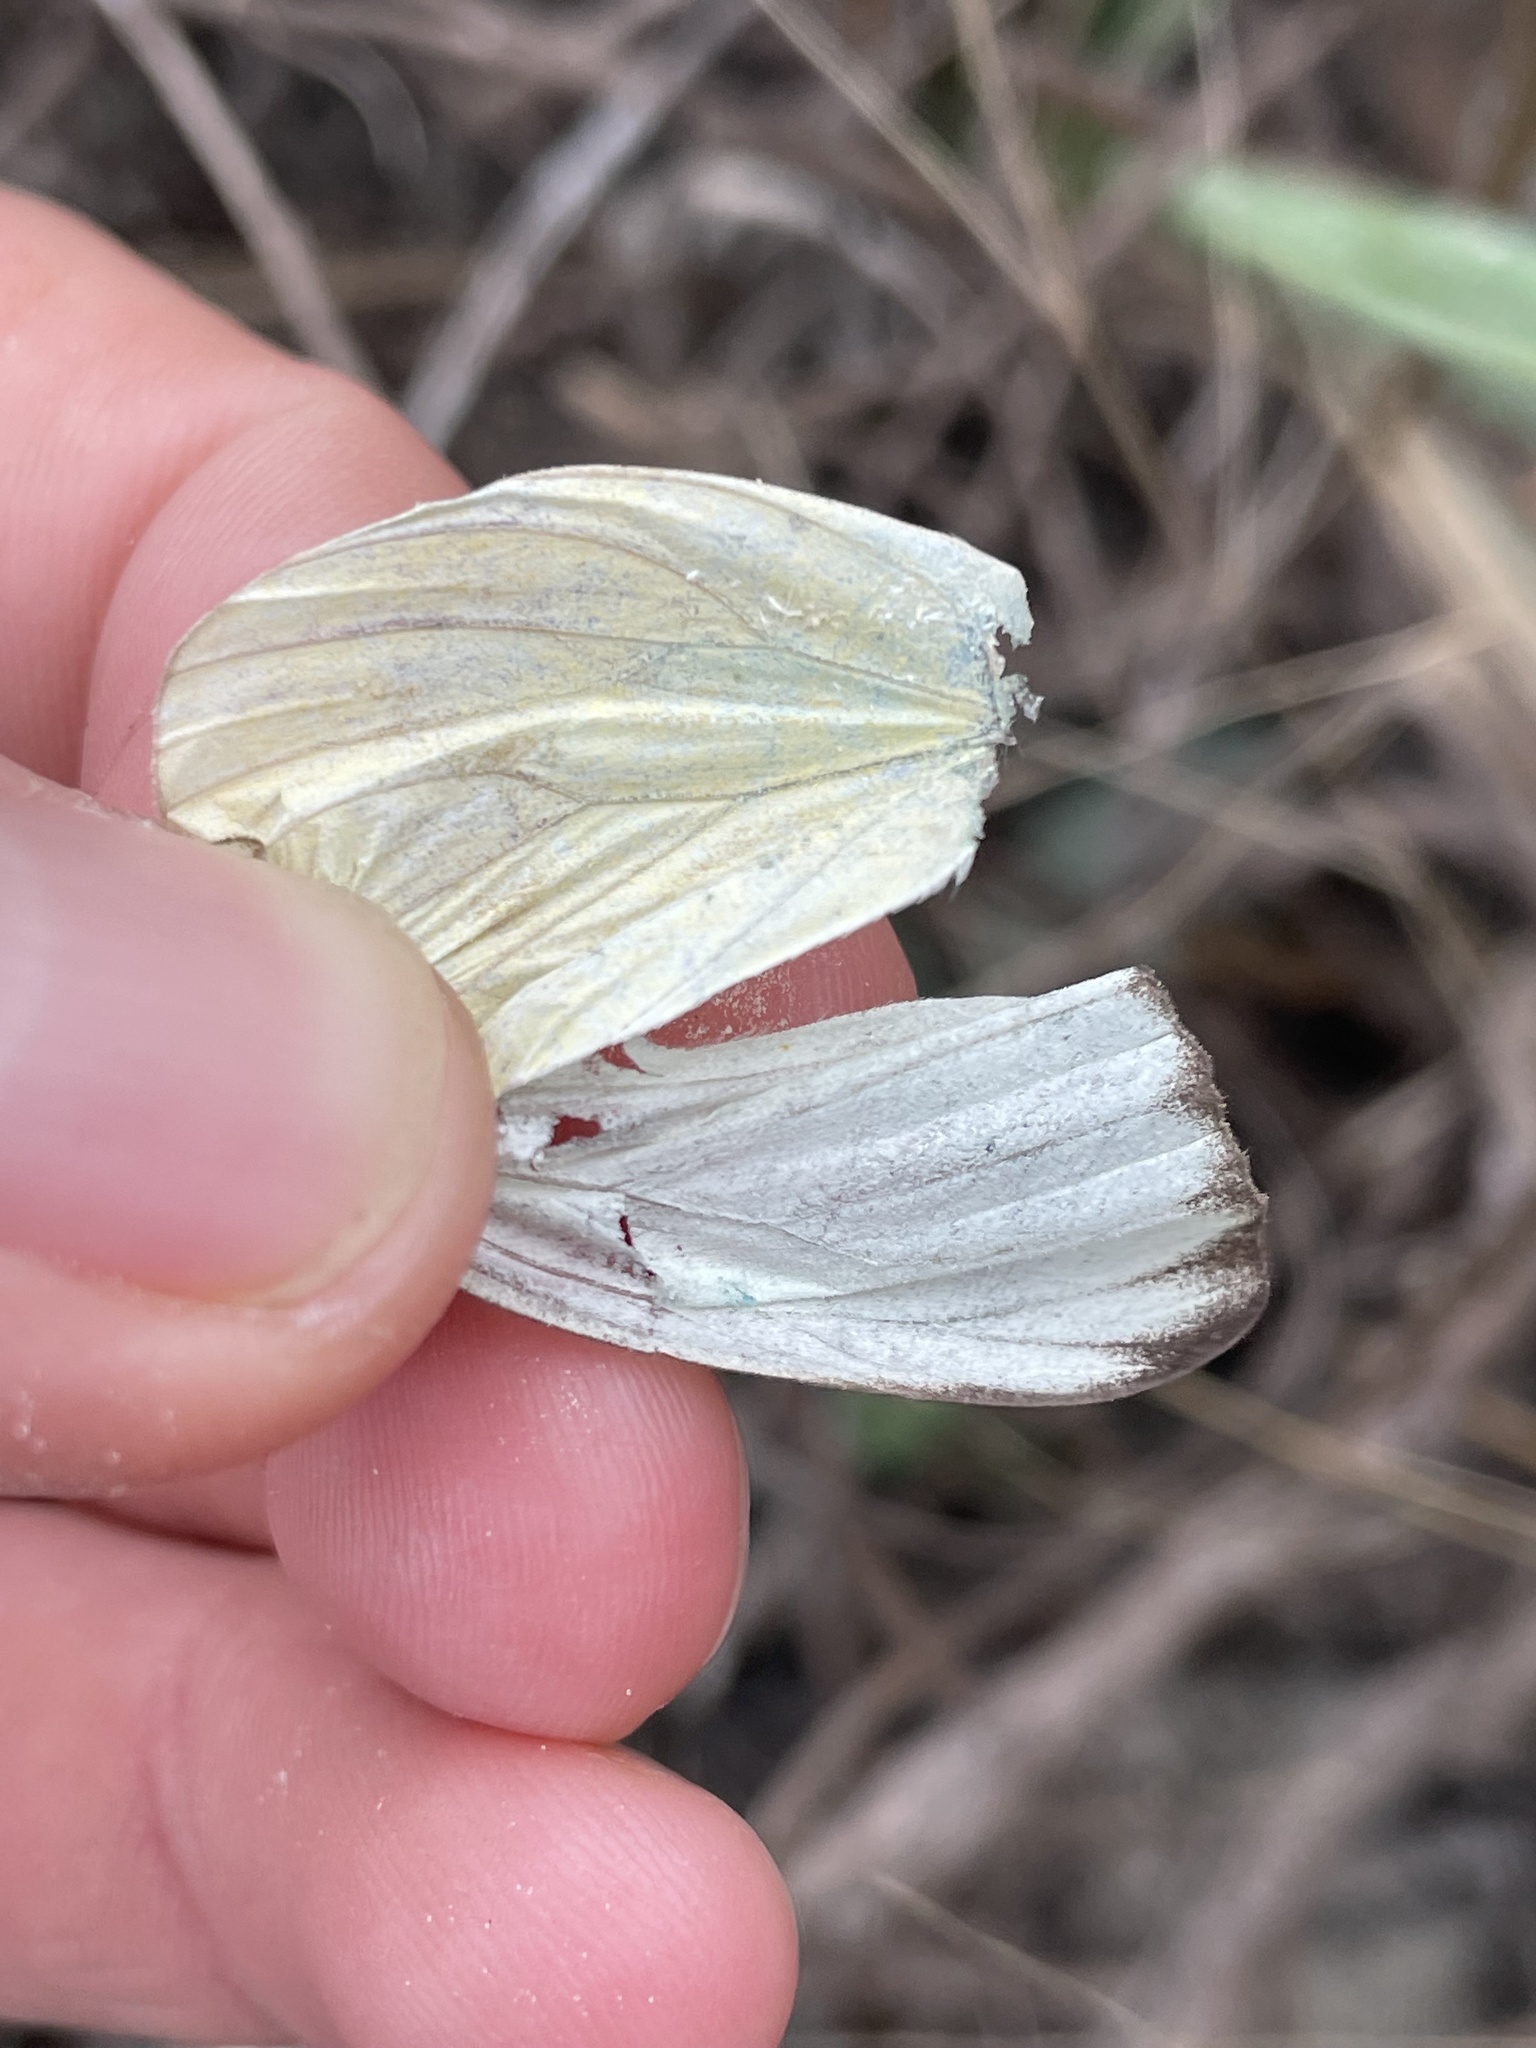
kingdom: Animalia
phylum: Arthropoda
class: Insecta
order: Lepidoptera
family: Pieridae
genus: Ascia
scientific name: Ascia monuste
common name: Great southern white
